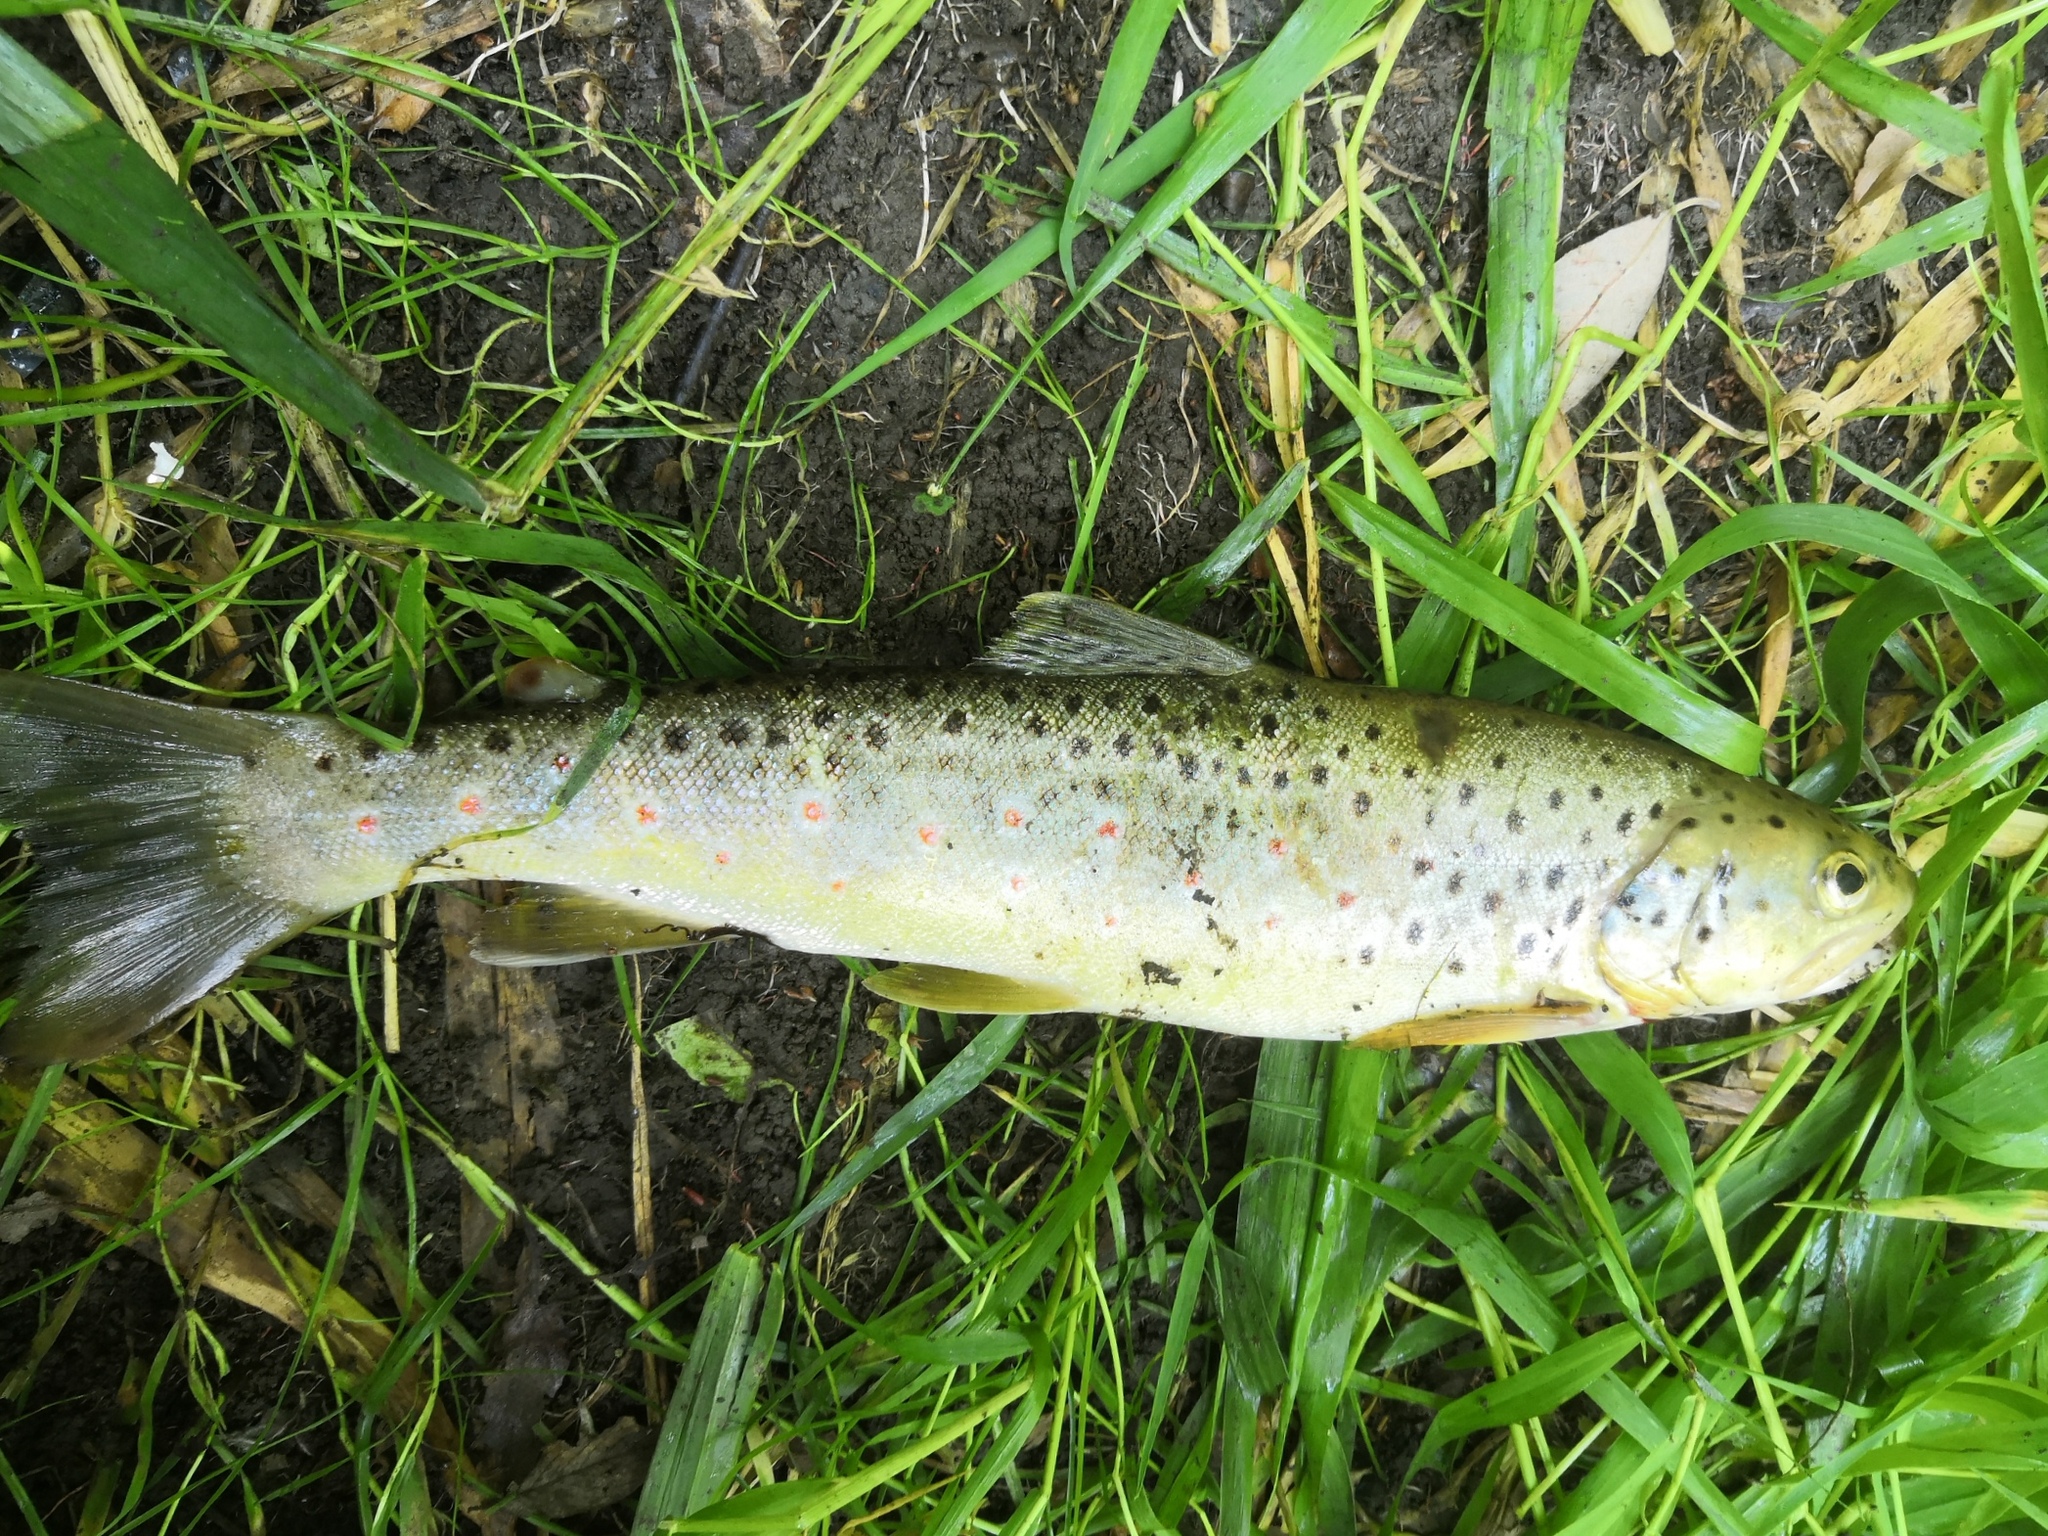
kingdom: Animalia
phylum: Chordata
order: Salmoniformes
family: Salmonidae
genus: Salmo
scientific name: Salmo trutta
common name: Brown trout
